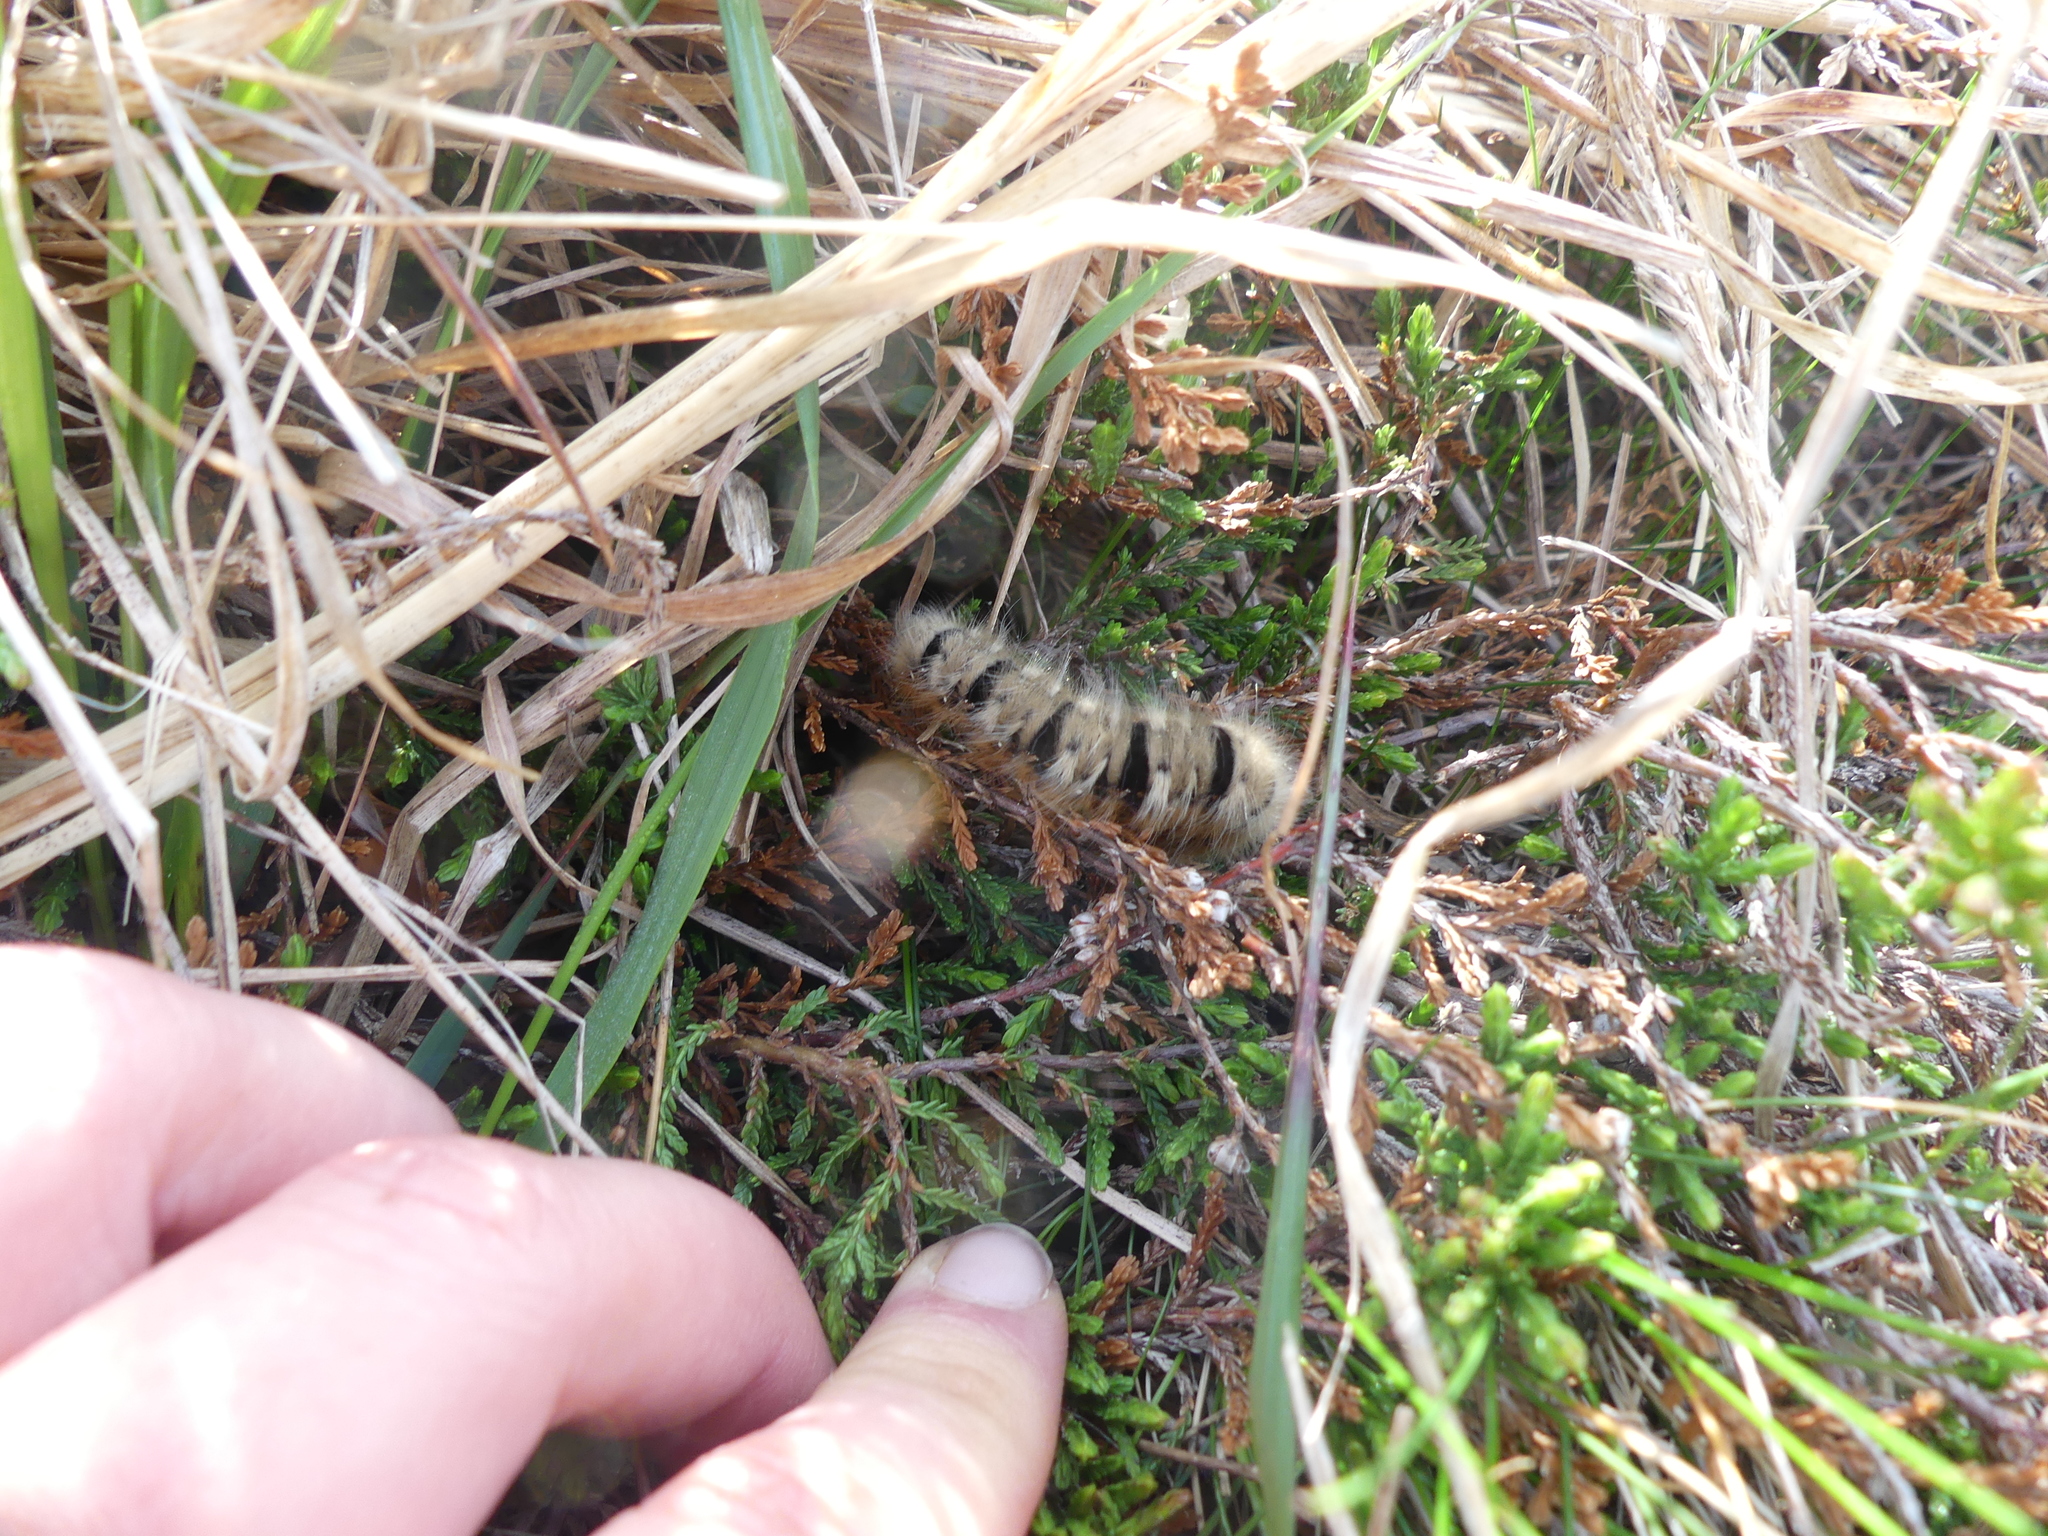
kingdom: Animalia
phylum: Arthropoda
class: Insecta
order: Lepidoptera
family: Lasiocampidae
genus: Lasiocampa
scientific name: Lasiocampa quercus
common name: Oak eggar
